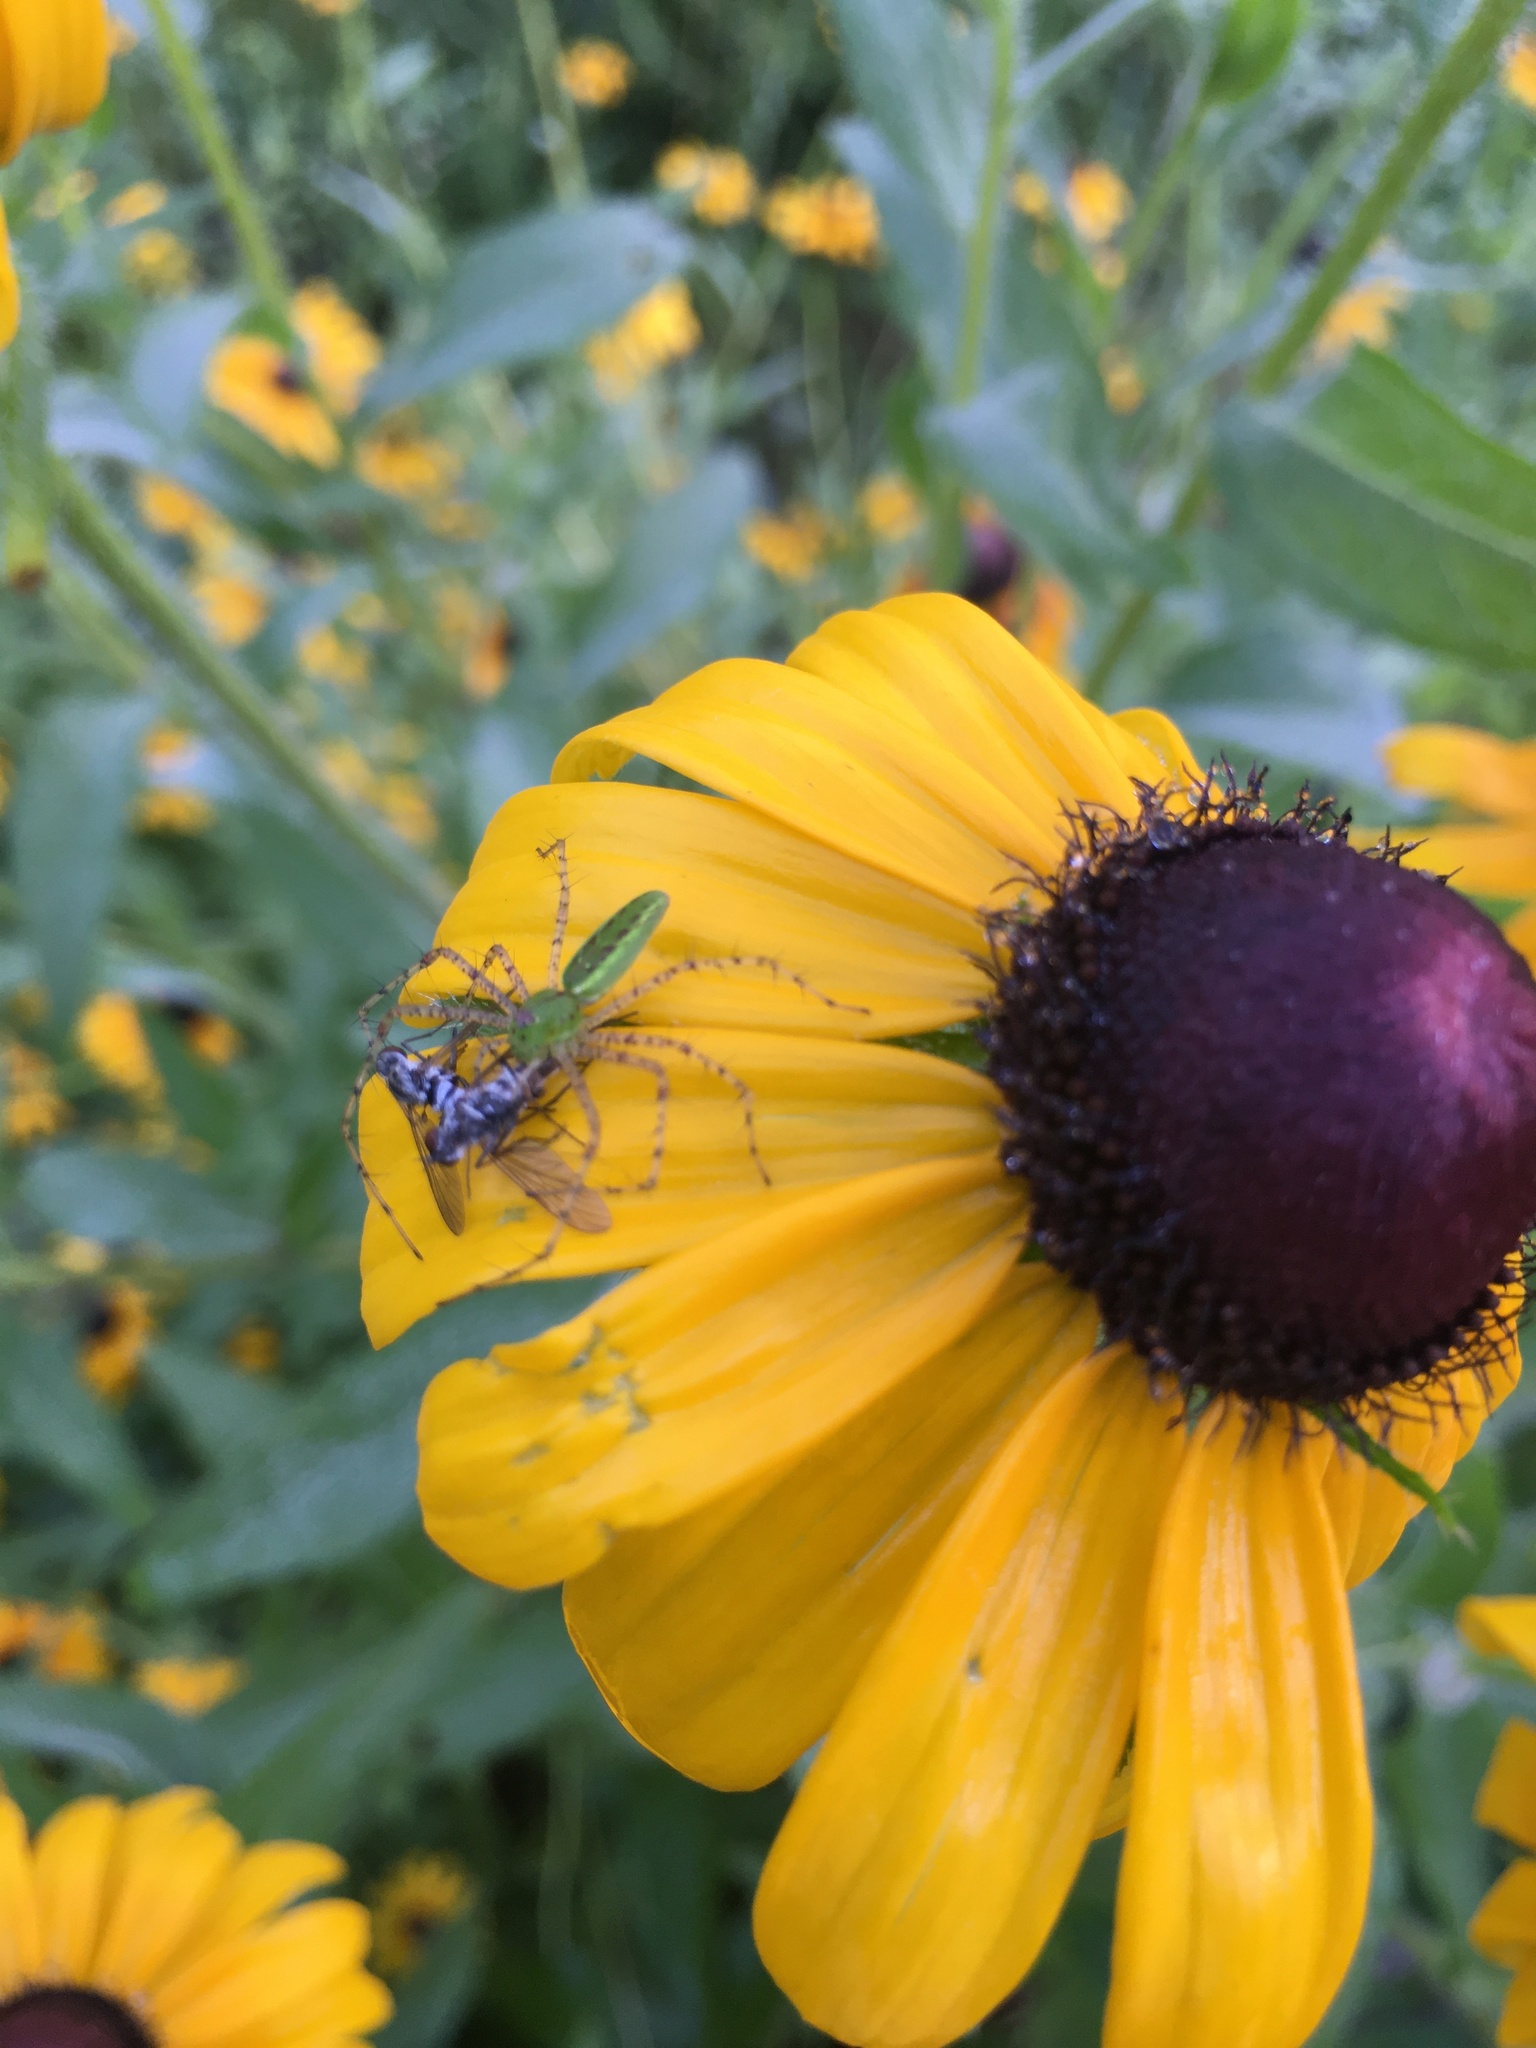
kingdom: Animalia
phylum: Arthropoda
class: Arachnida
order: Araneae
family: Oxyopidae
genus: Peucetia
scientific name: Peucetia viridans
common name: Lynx spiders
